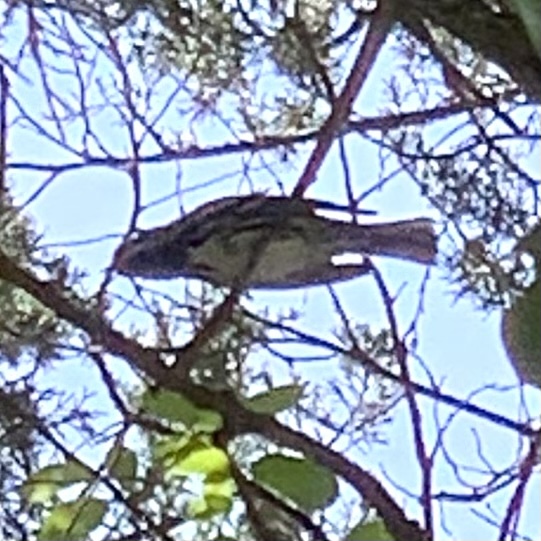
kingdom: Animalia
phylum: Chordata
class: Aves
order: Passeriformes
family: Parulidae
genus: Mniotilta
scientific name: Mniotilta varia
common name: Black-and-white warbler
